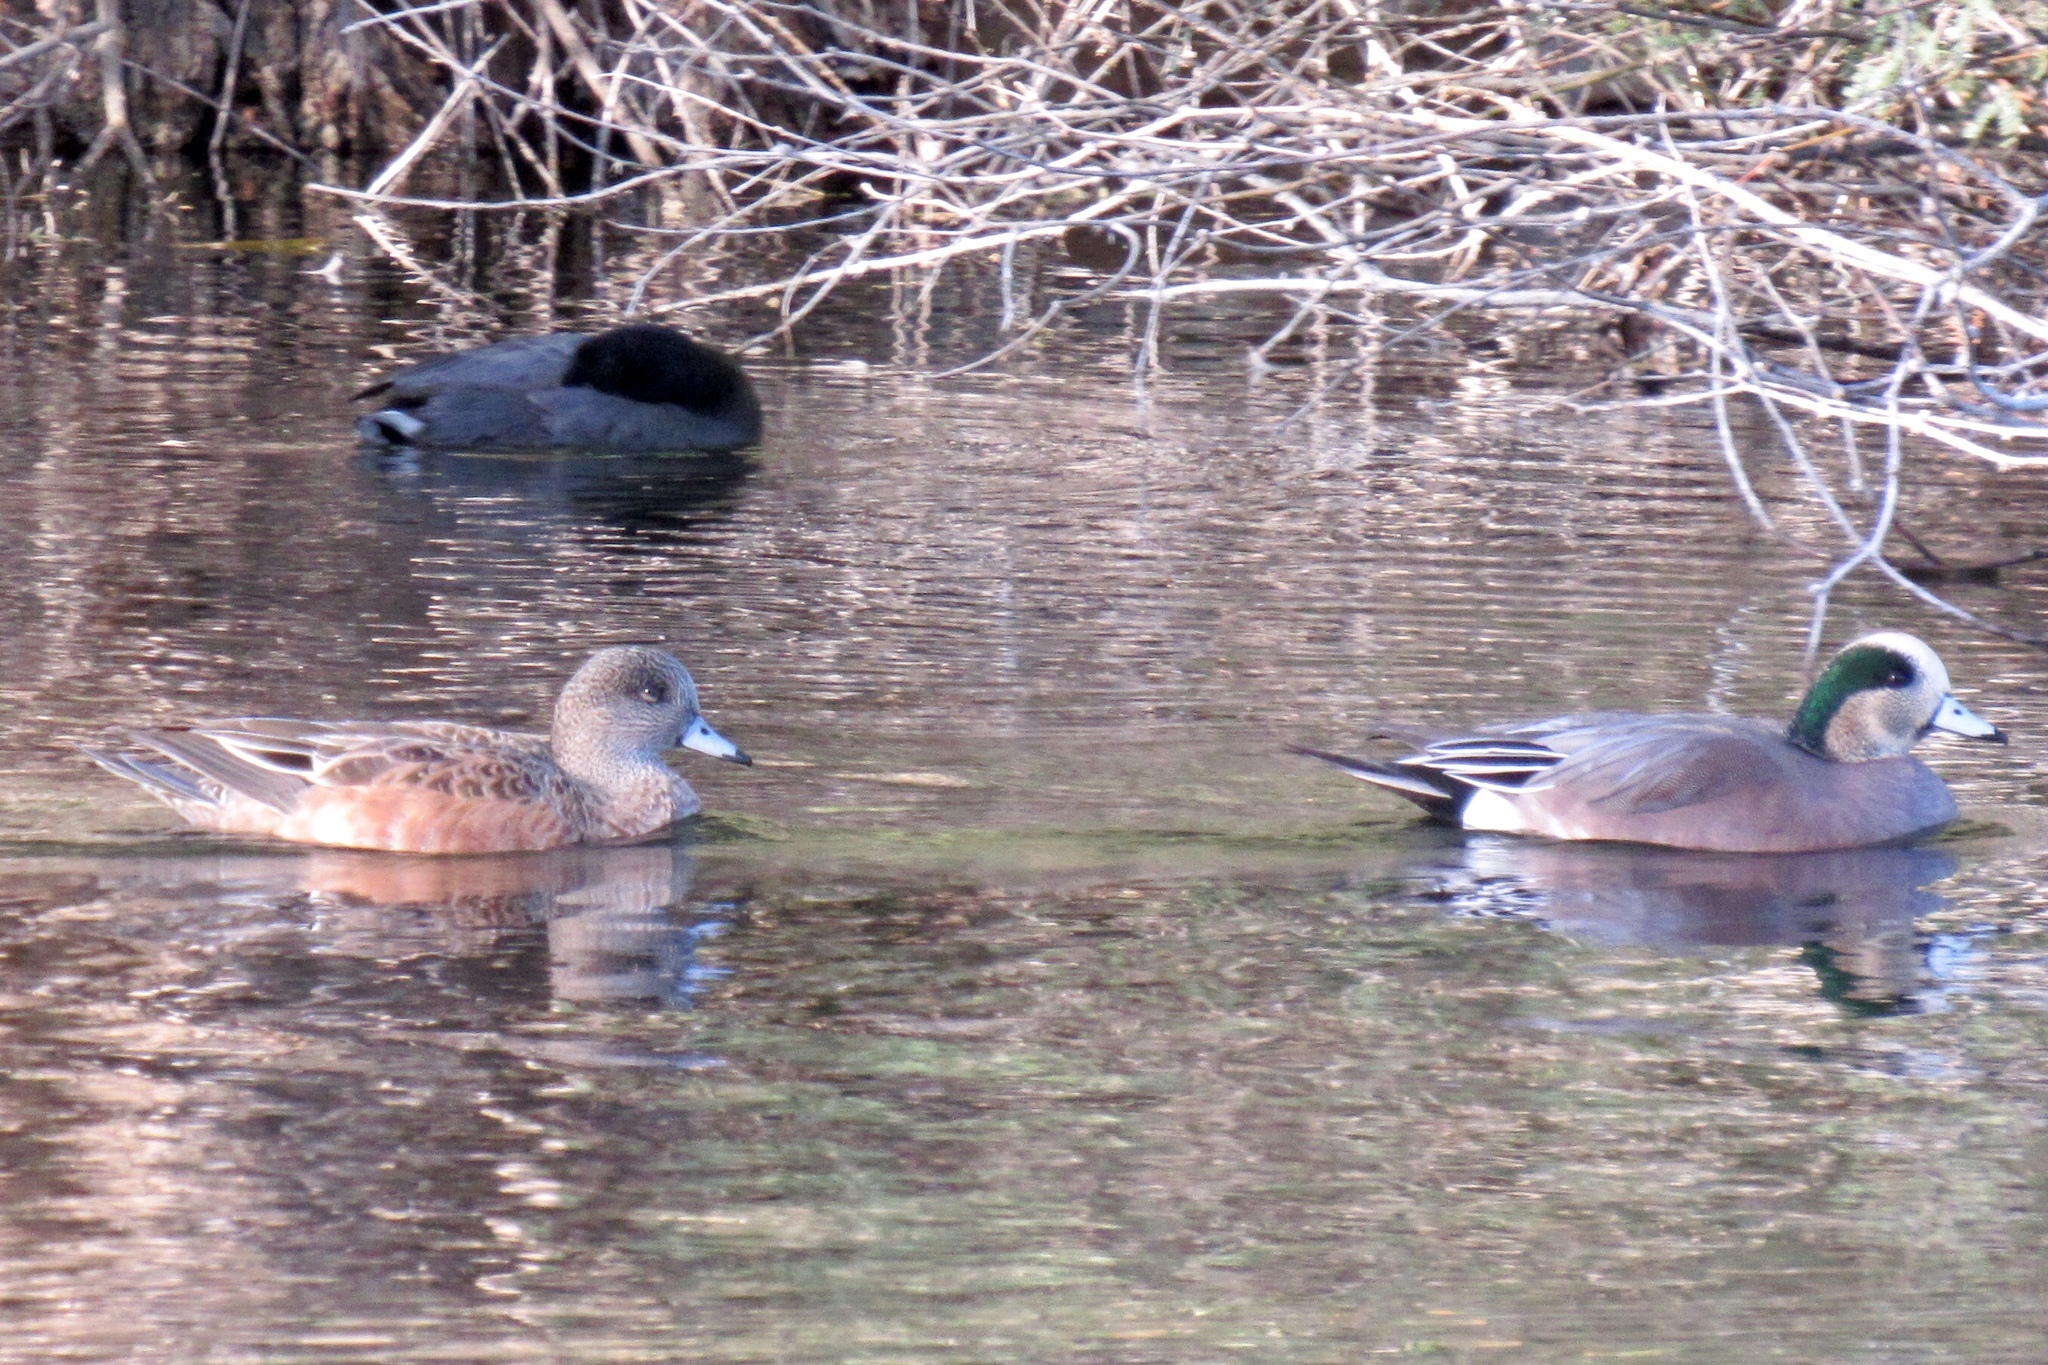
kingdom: Animalia
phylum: Chordata
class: Aves
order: Anseriformes
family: Anatidae
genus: Mareca
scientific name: Mareca americana
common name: American wigeon
